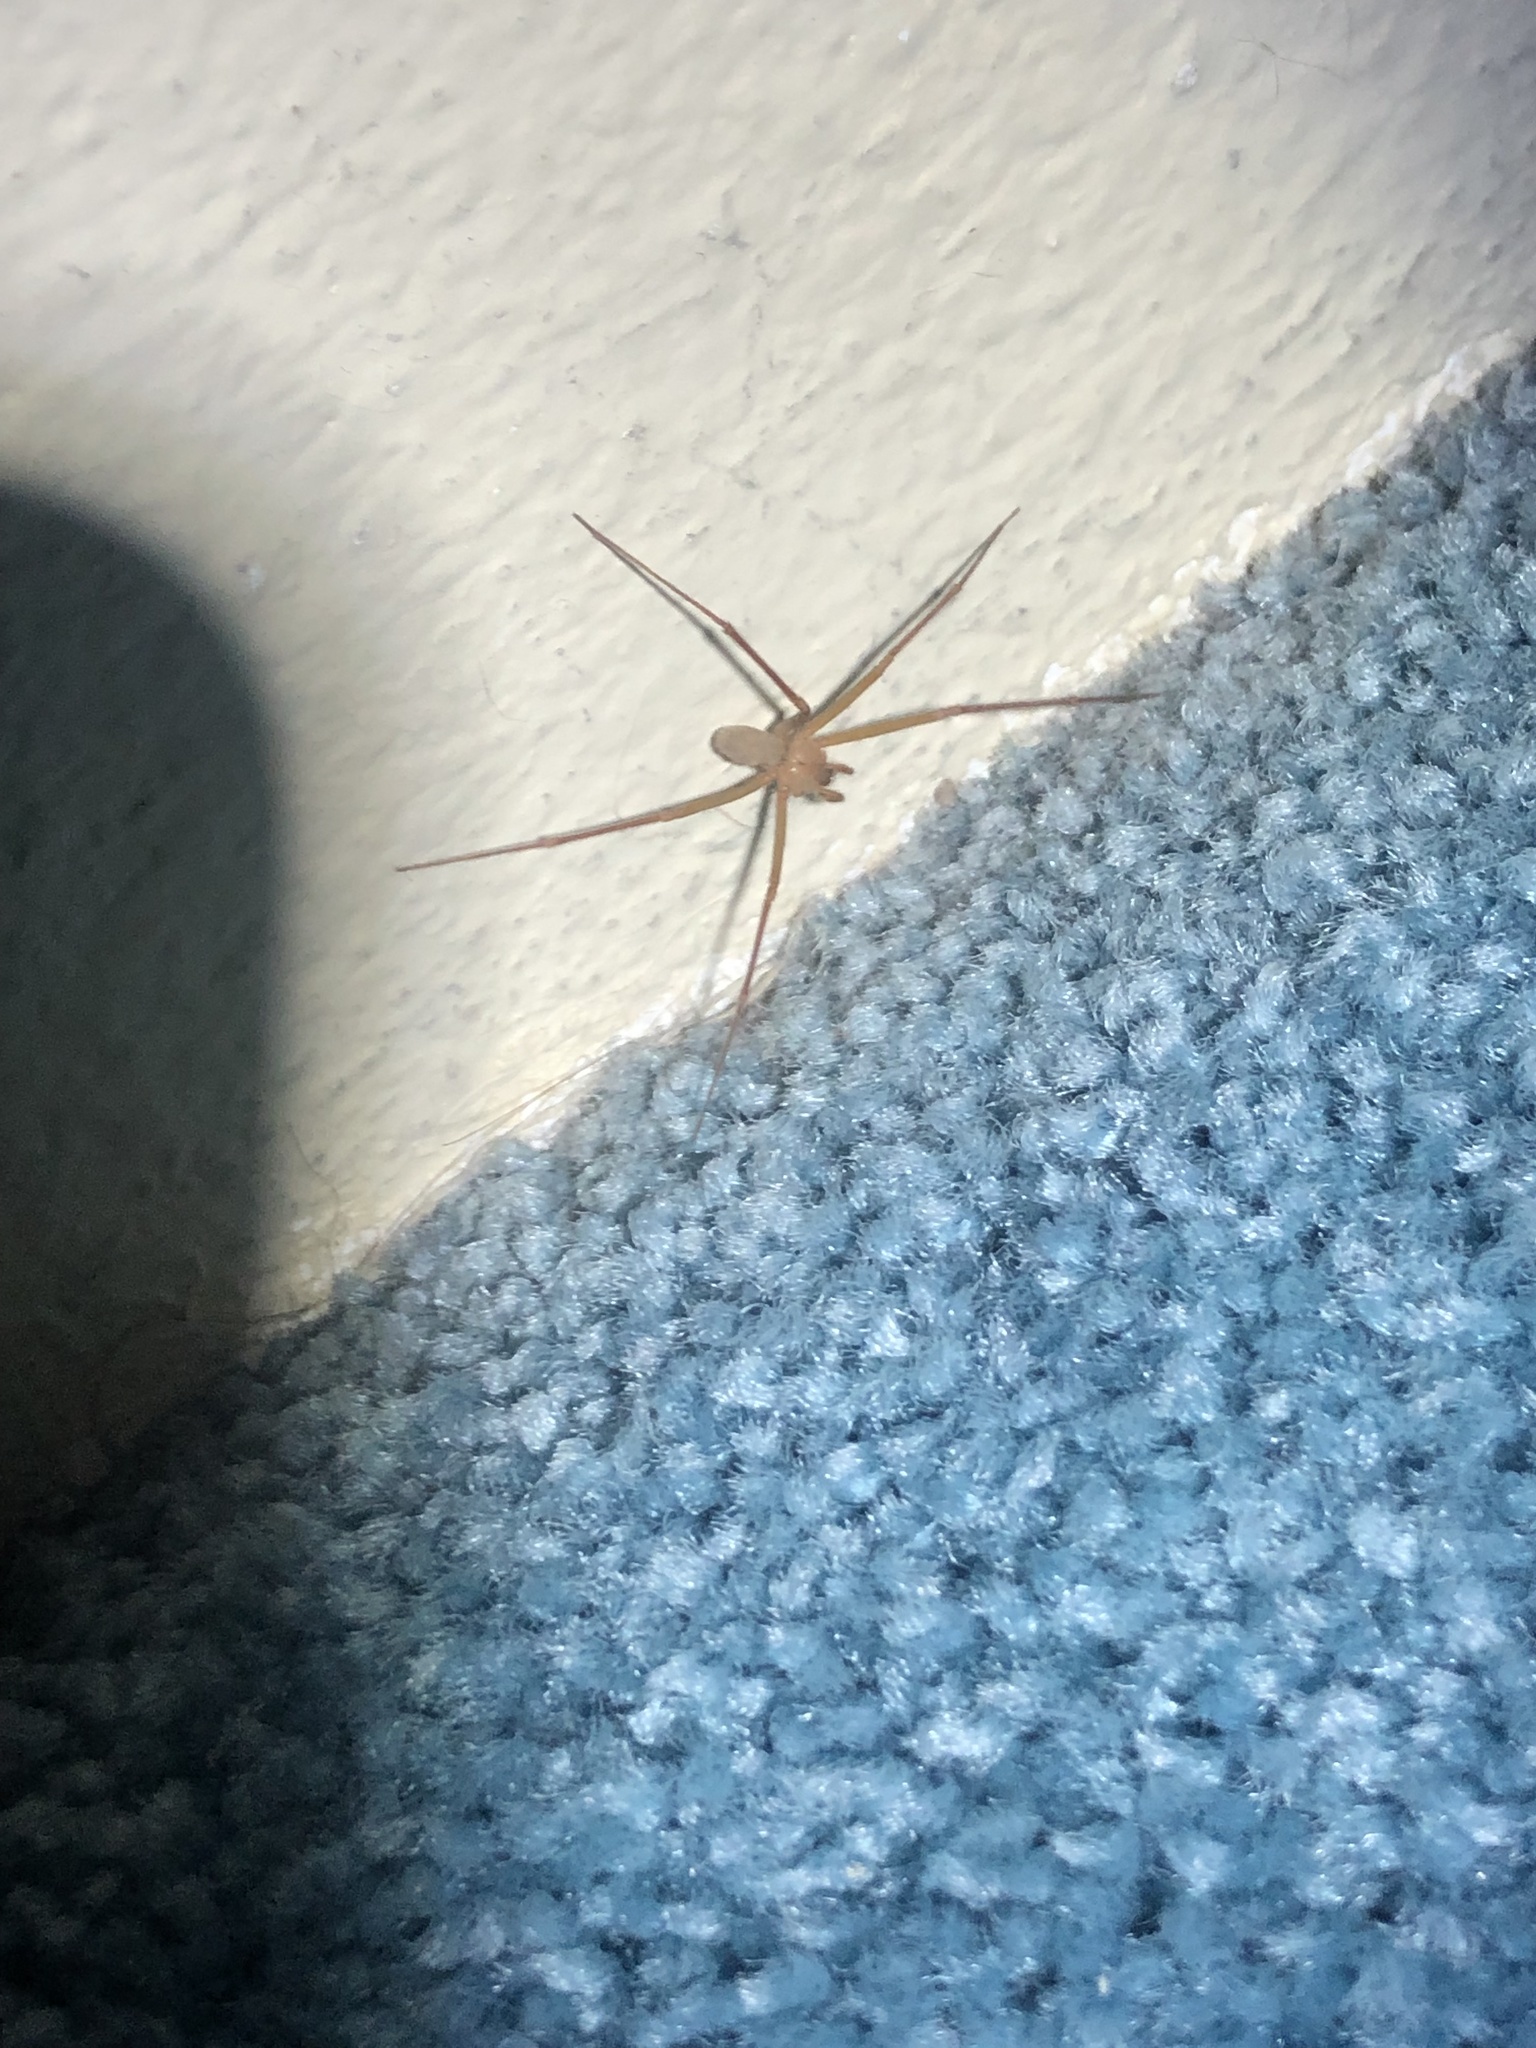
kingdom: Animalia
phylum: Arthropoda
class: Arachnida
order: Araneae
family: Sicariidae
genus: Loxosceles
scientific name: Loxosceles deserta
